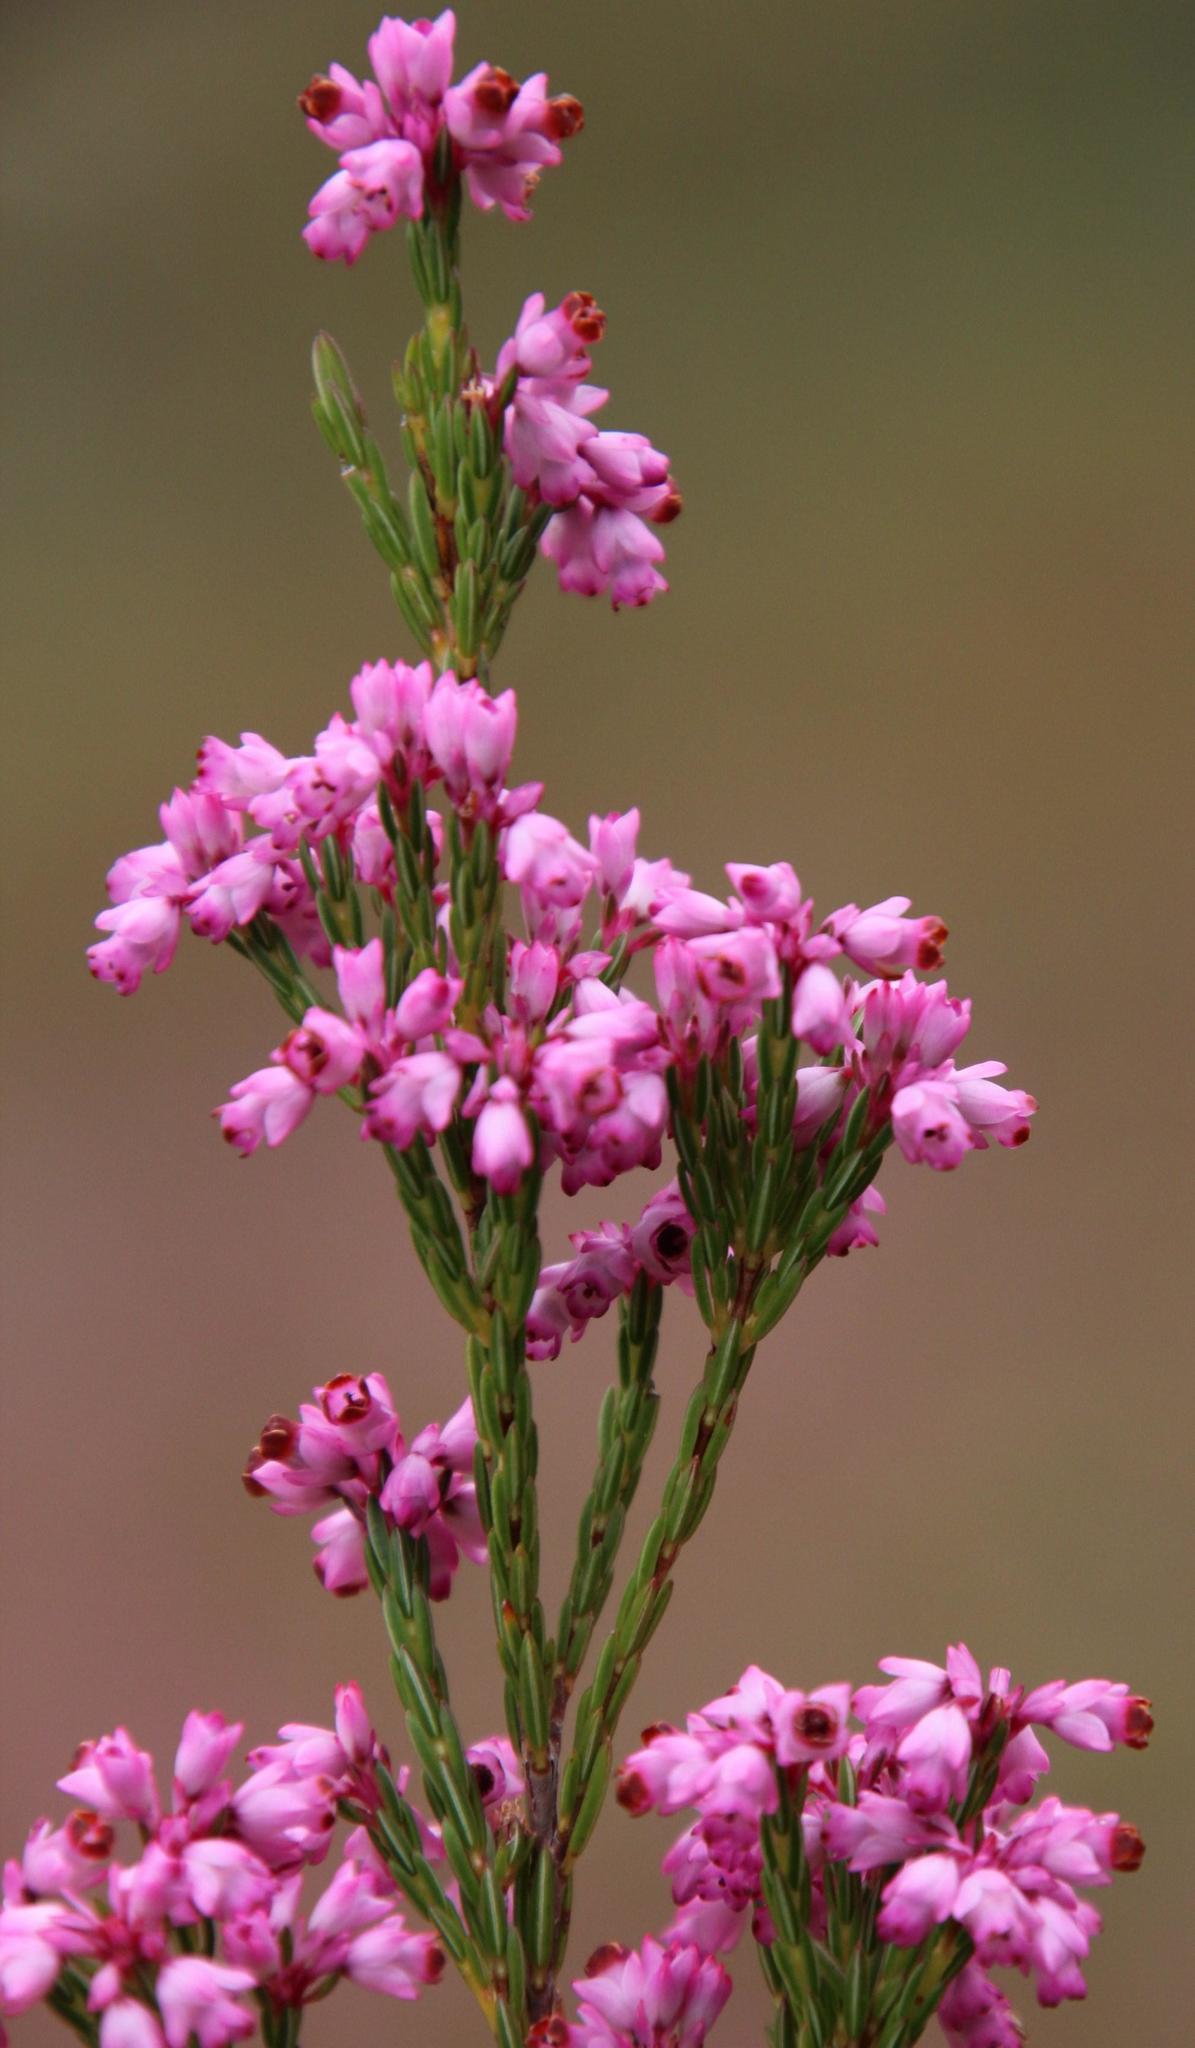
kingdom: Plantae
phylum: Tracheophyta
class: Magnoliopsida
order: Ericales
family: Ericaceae
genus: Erica
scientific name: Erica corifolia
